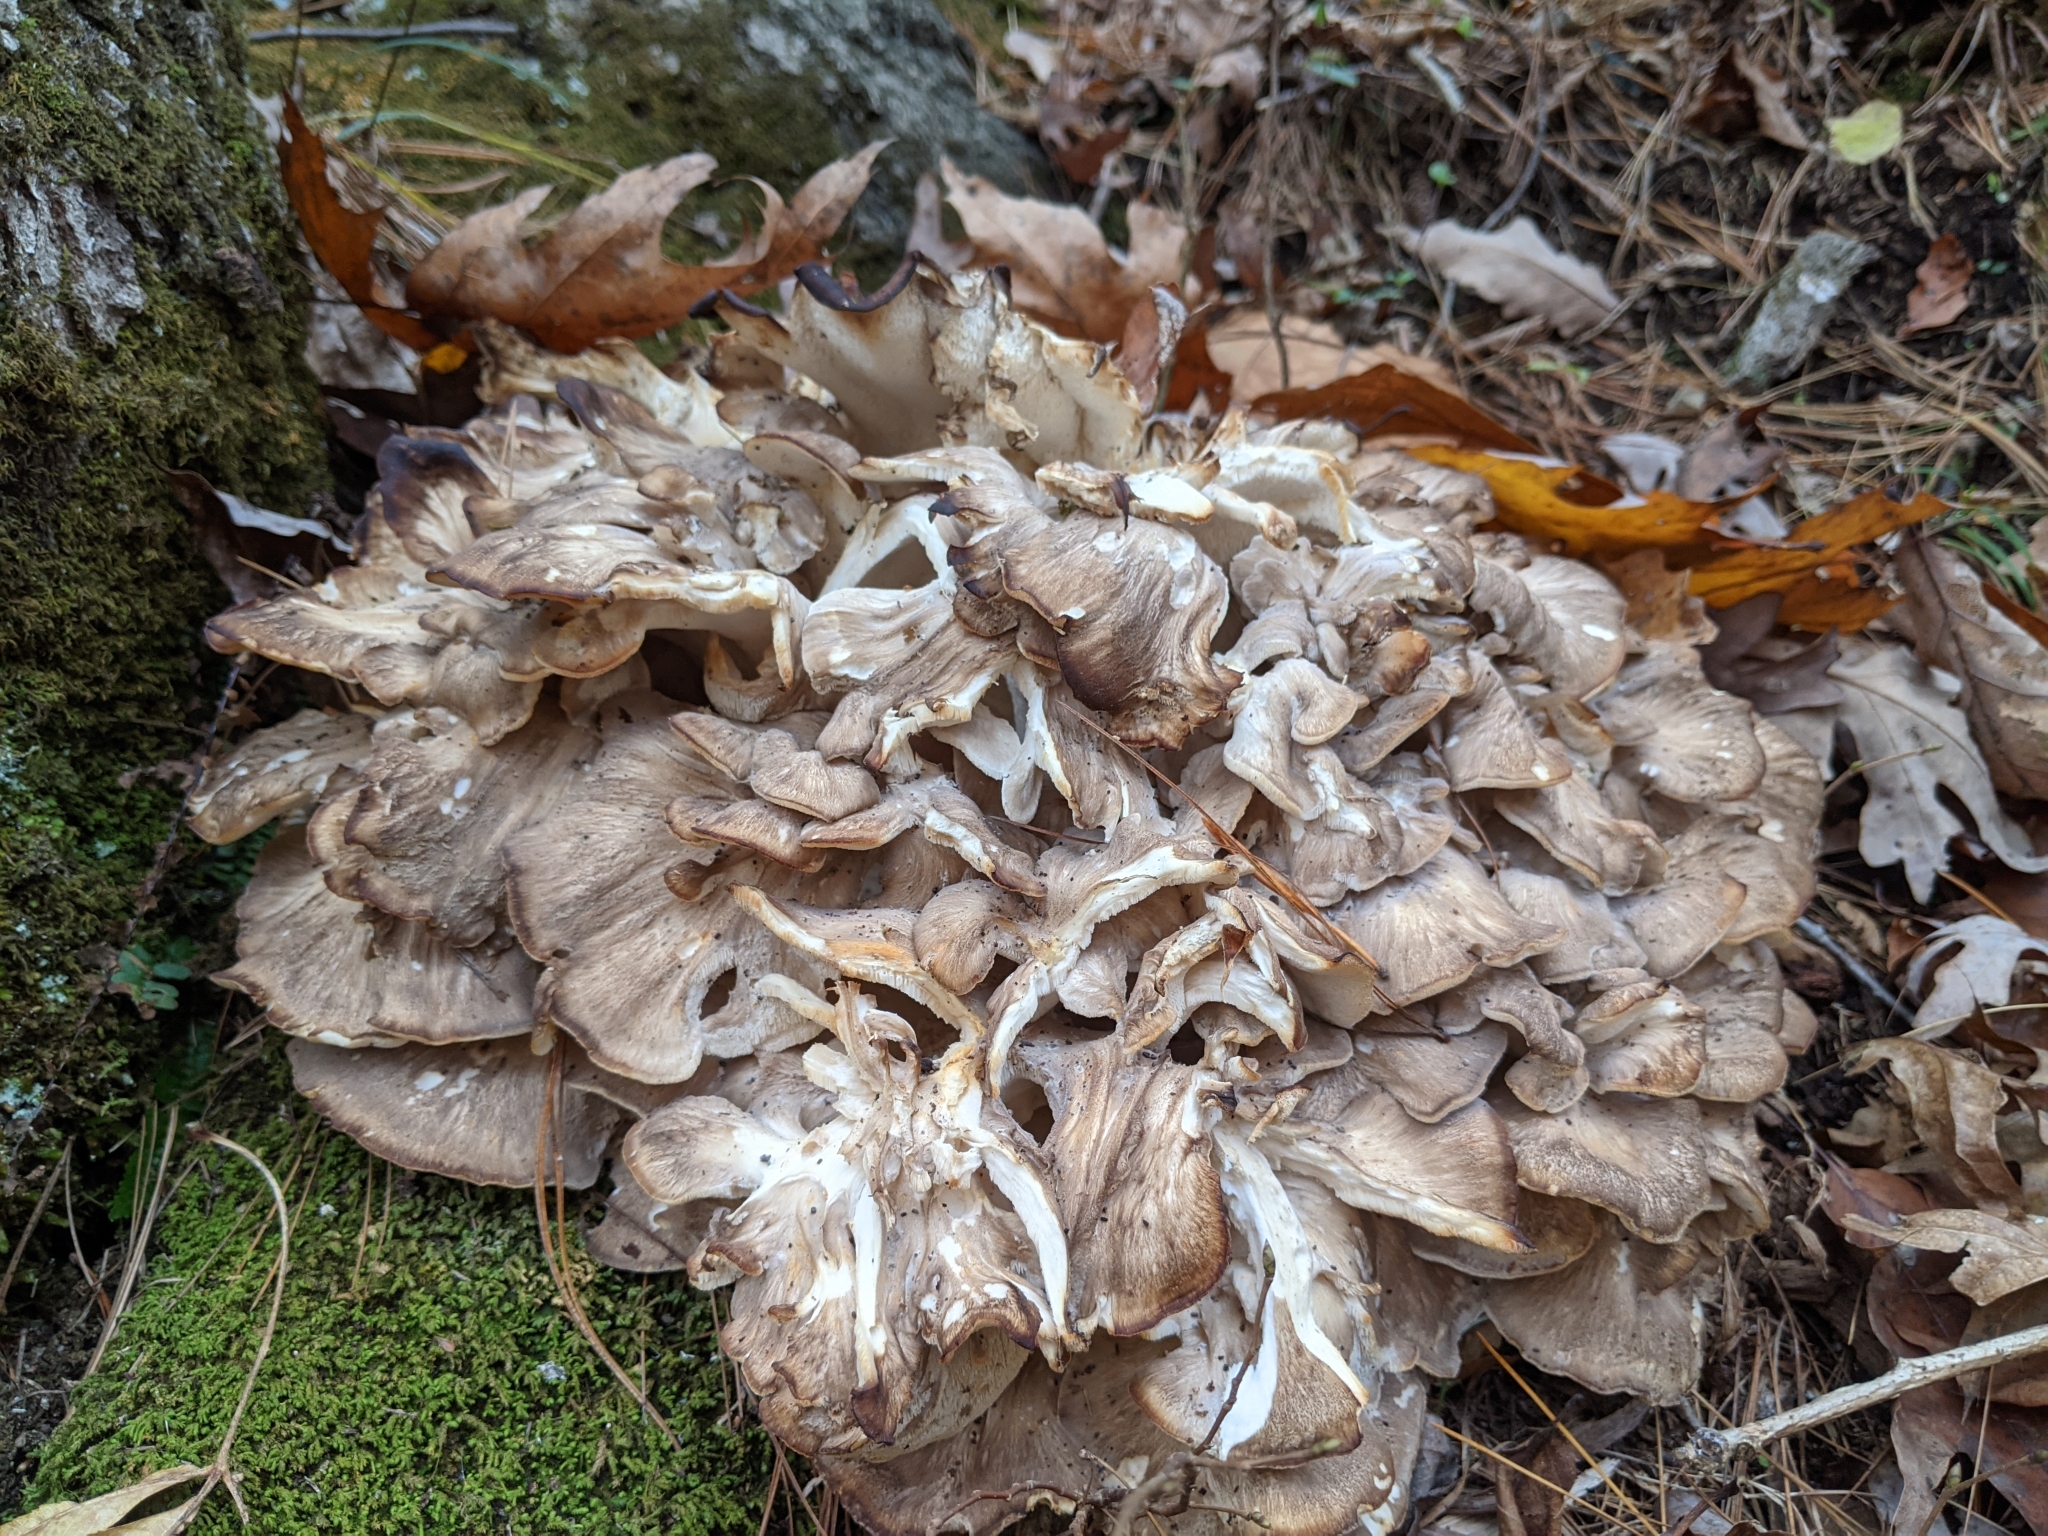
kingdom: Fungi
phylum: Basidiomycota
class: Agaricomycetes
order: Polyporales
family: Grifolaceae
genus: Grifola
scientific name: Grifola frondosa
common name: Hen of the woods
